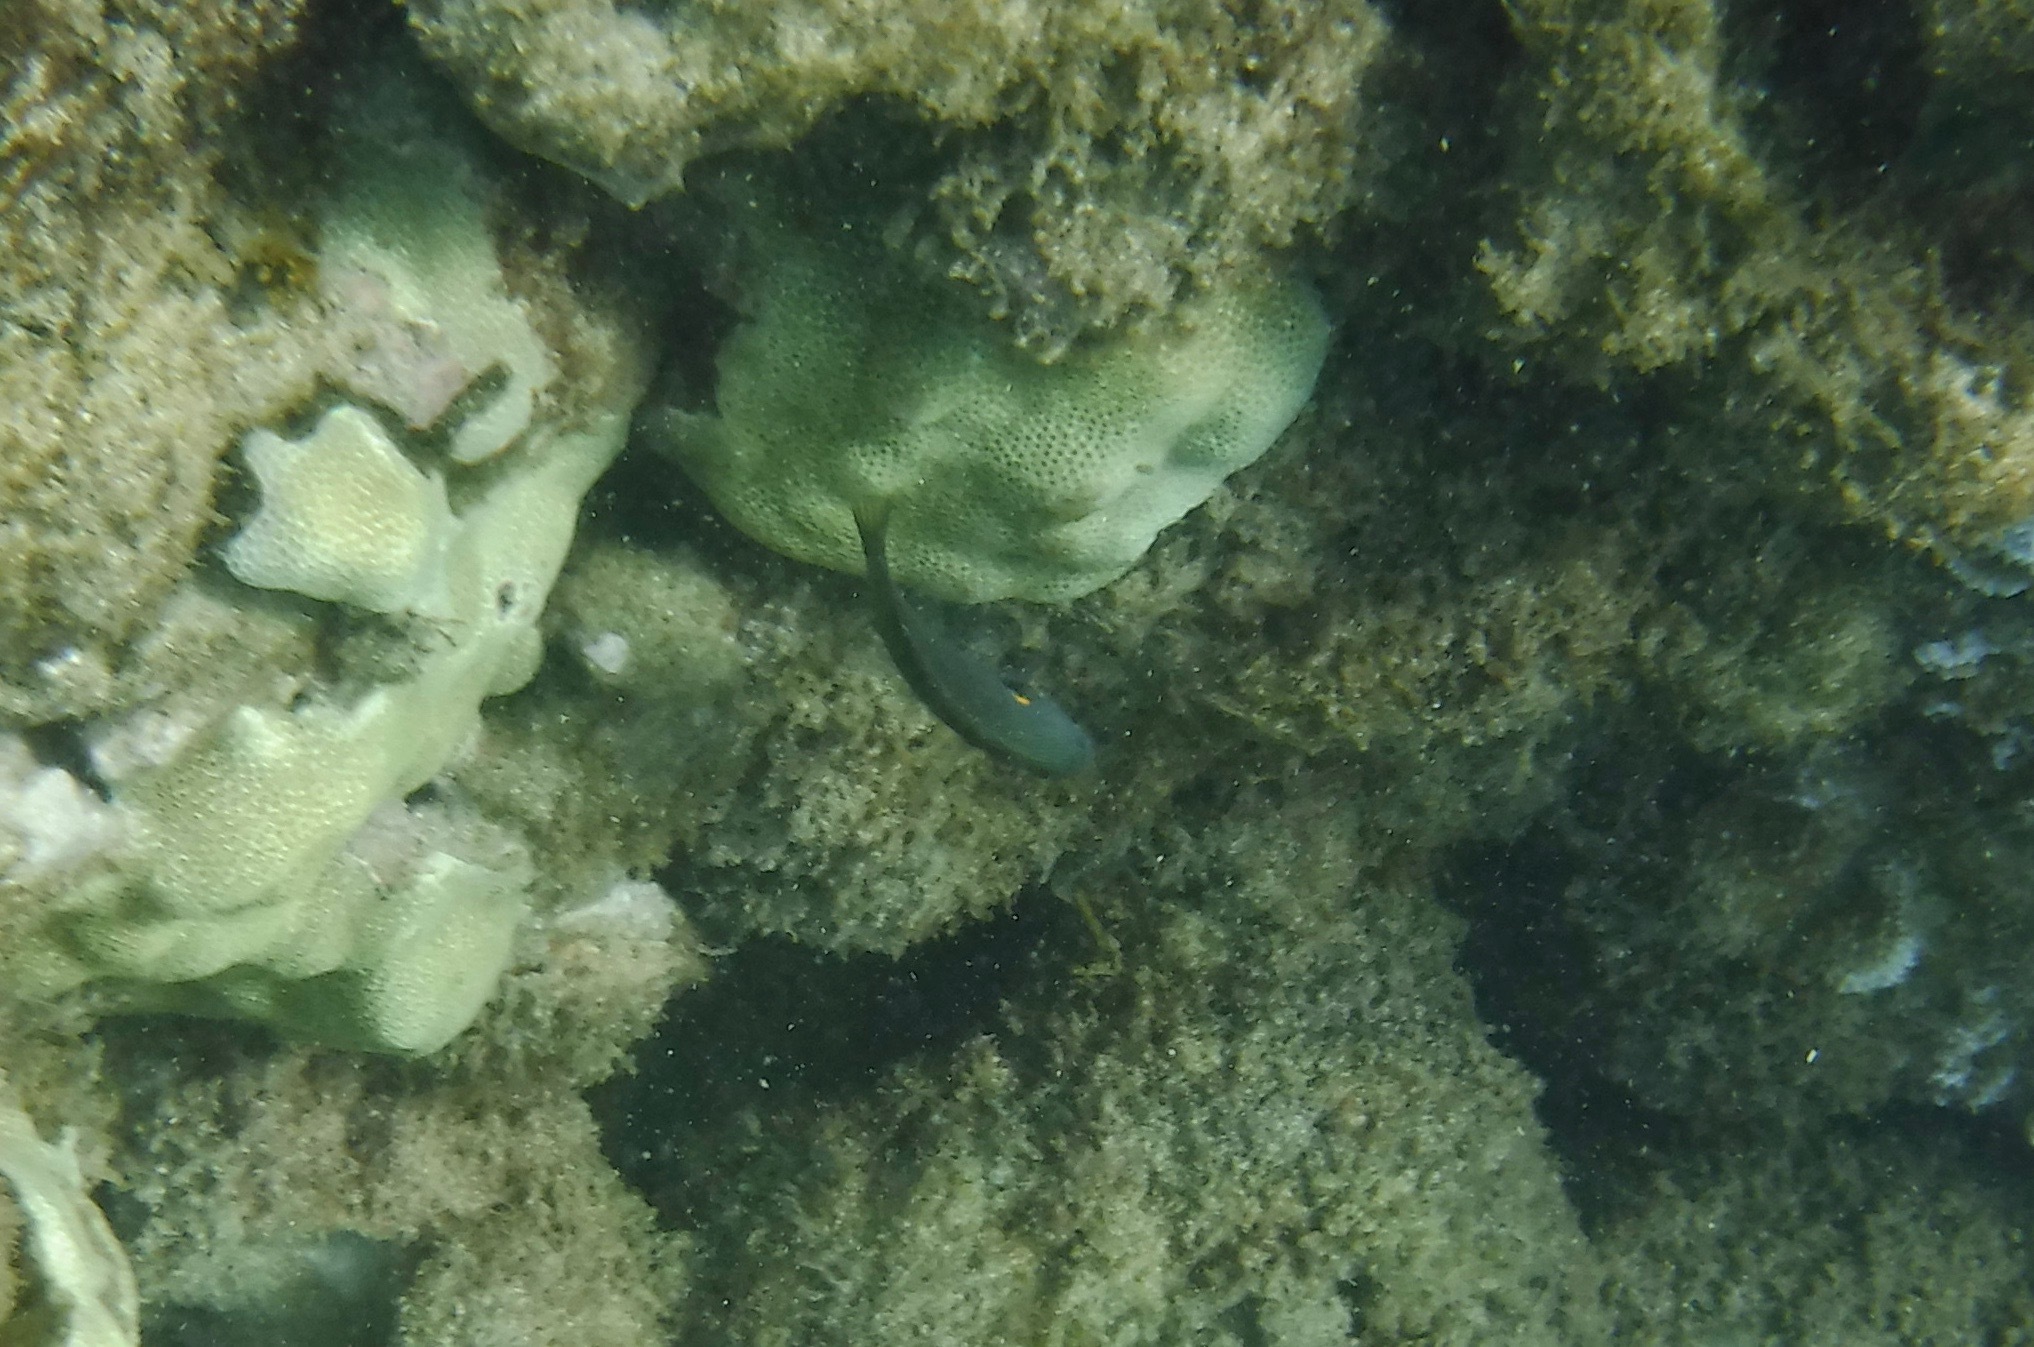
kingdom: Animalia
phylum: Chordata
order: Perciformes
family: Labridae
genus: Stethojulis
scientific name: Stethojulis balteata
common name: Belted wrasse
